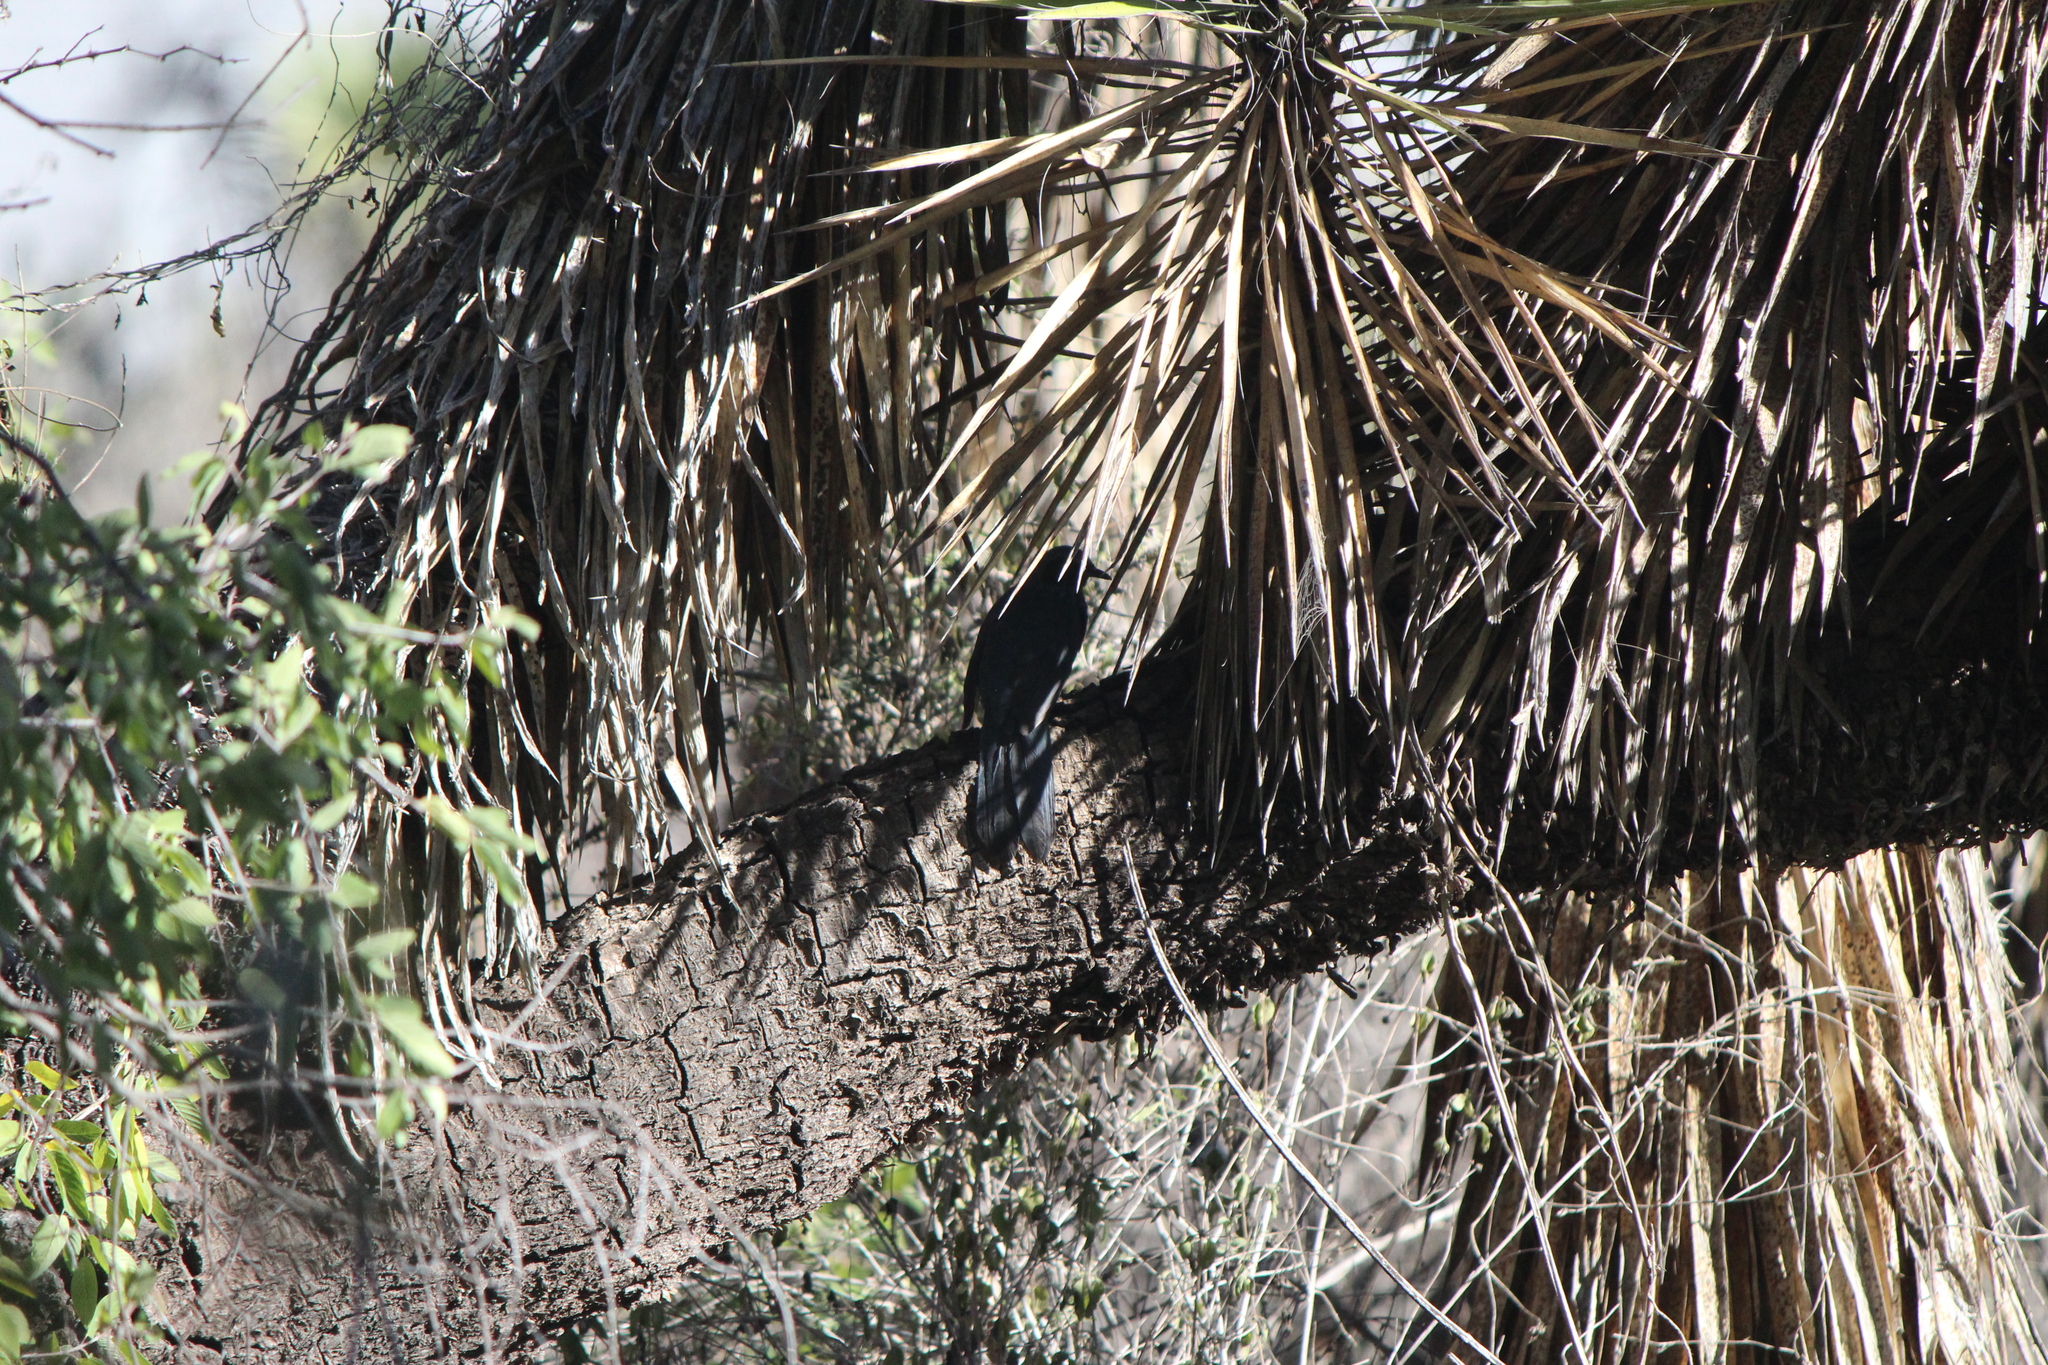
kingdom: Animalia
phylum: Chordata
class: Aves
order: Passeriformes
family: Mimidae
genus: Melanotis
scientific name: Melanotis caerulescens
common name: Blue mockingbird
